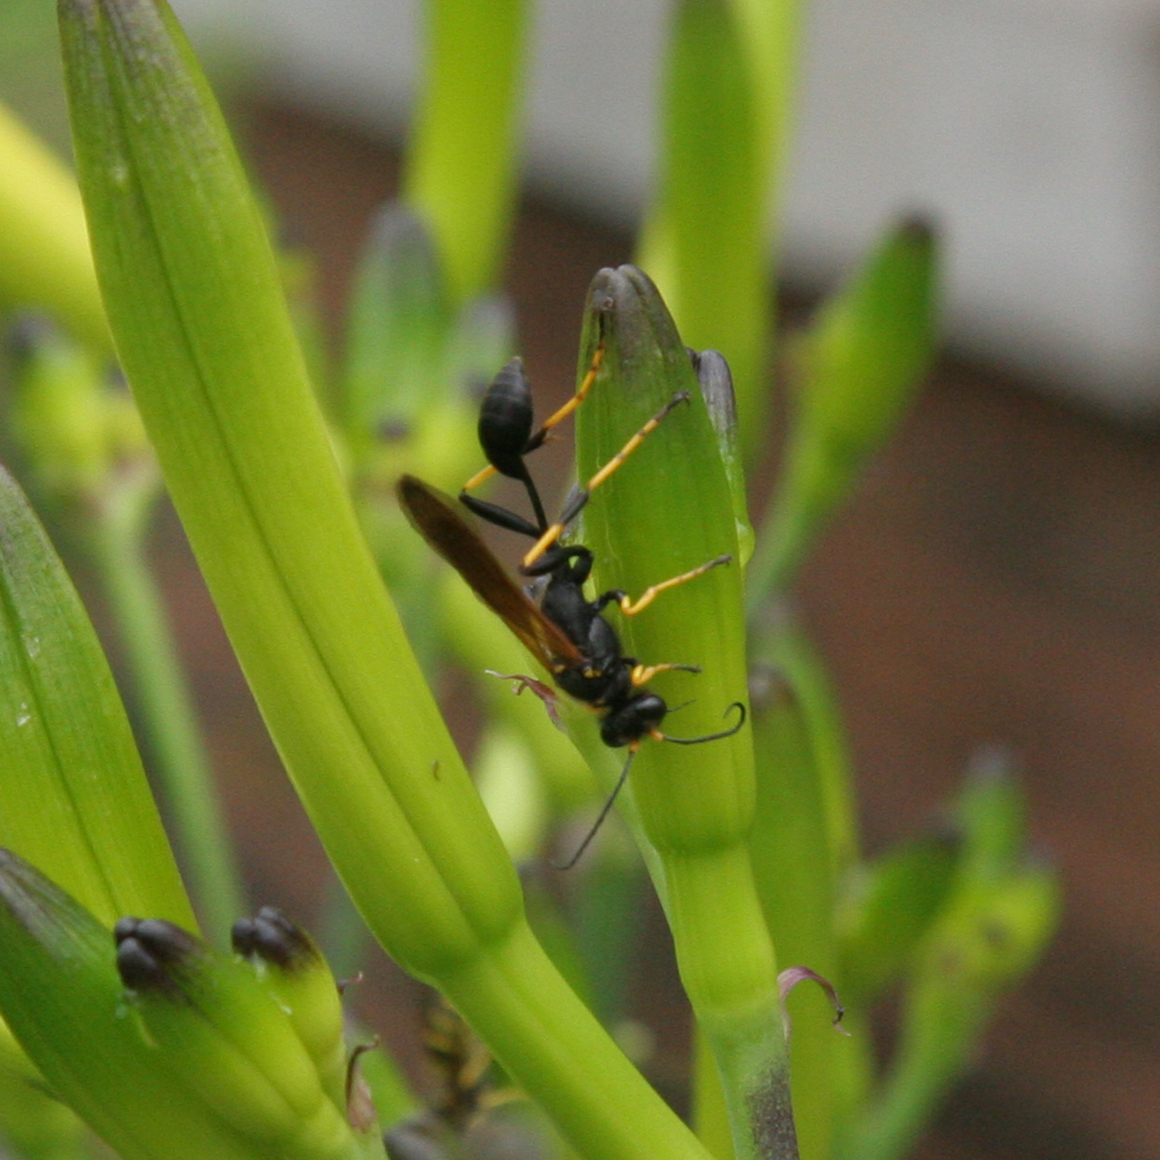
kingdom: Animalia
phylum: Arthropoda
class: Insecta
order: Hymenoptera
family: Sphecidae
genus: Sceliphron
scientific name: Sceliphron caementarium
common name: Mud dauber
